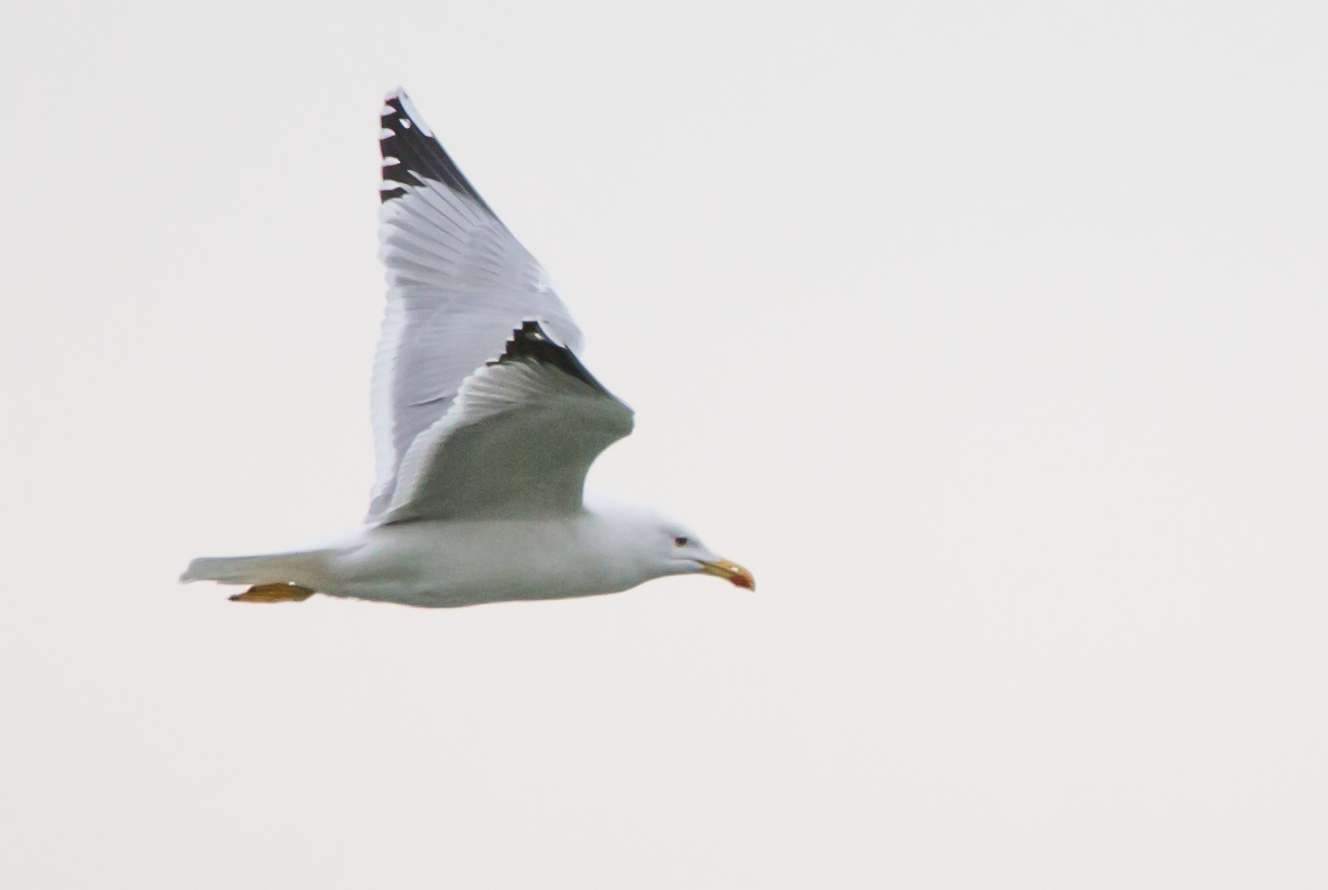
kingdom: Animalia
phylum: Chordata
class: Aves
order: Charadriiformes
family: Laridae
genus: Larus
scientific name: Larus michahellis
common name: Yellow-legged gull
